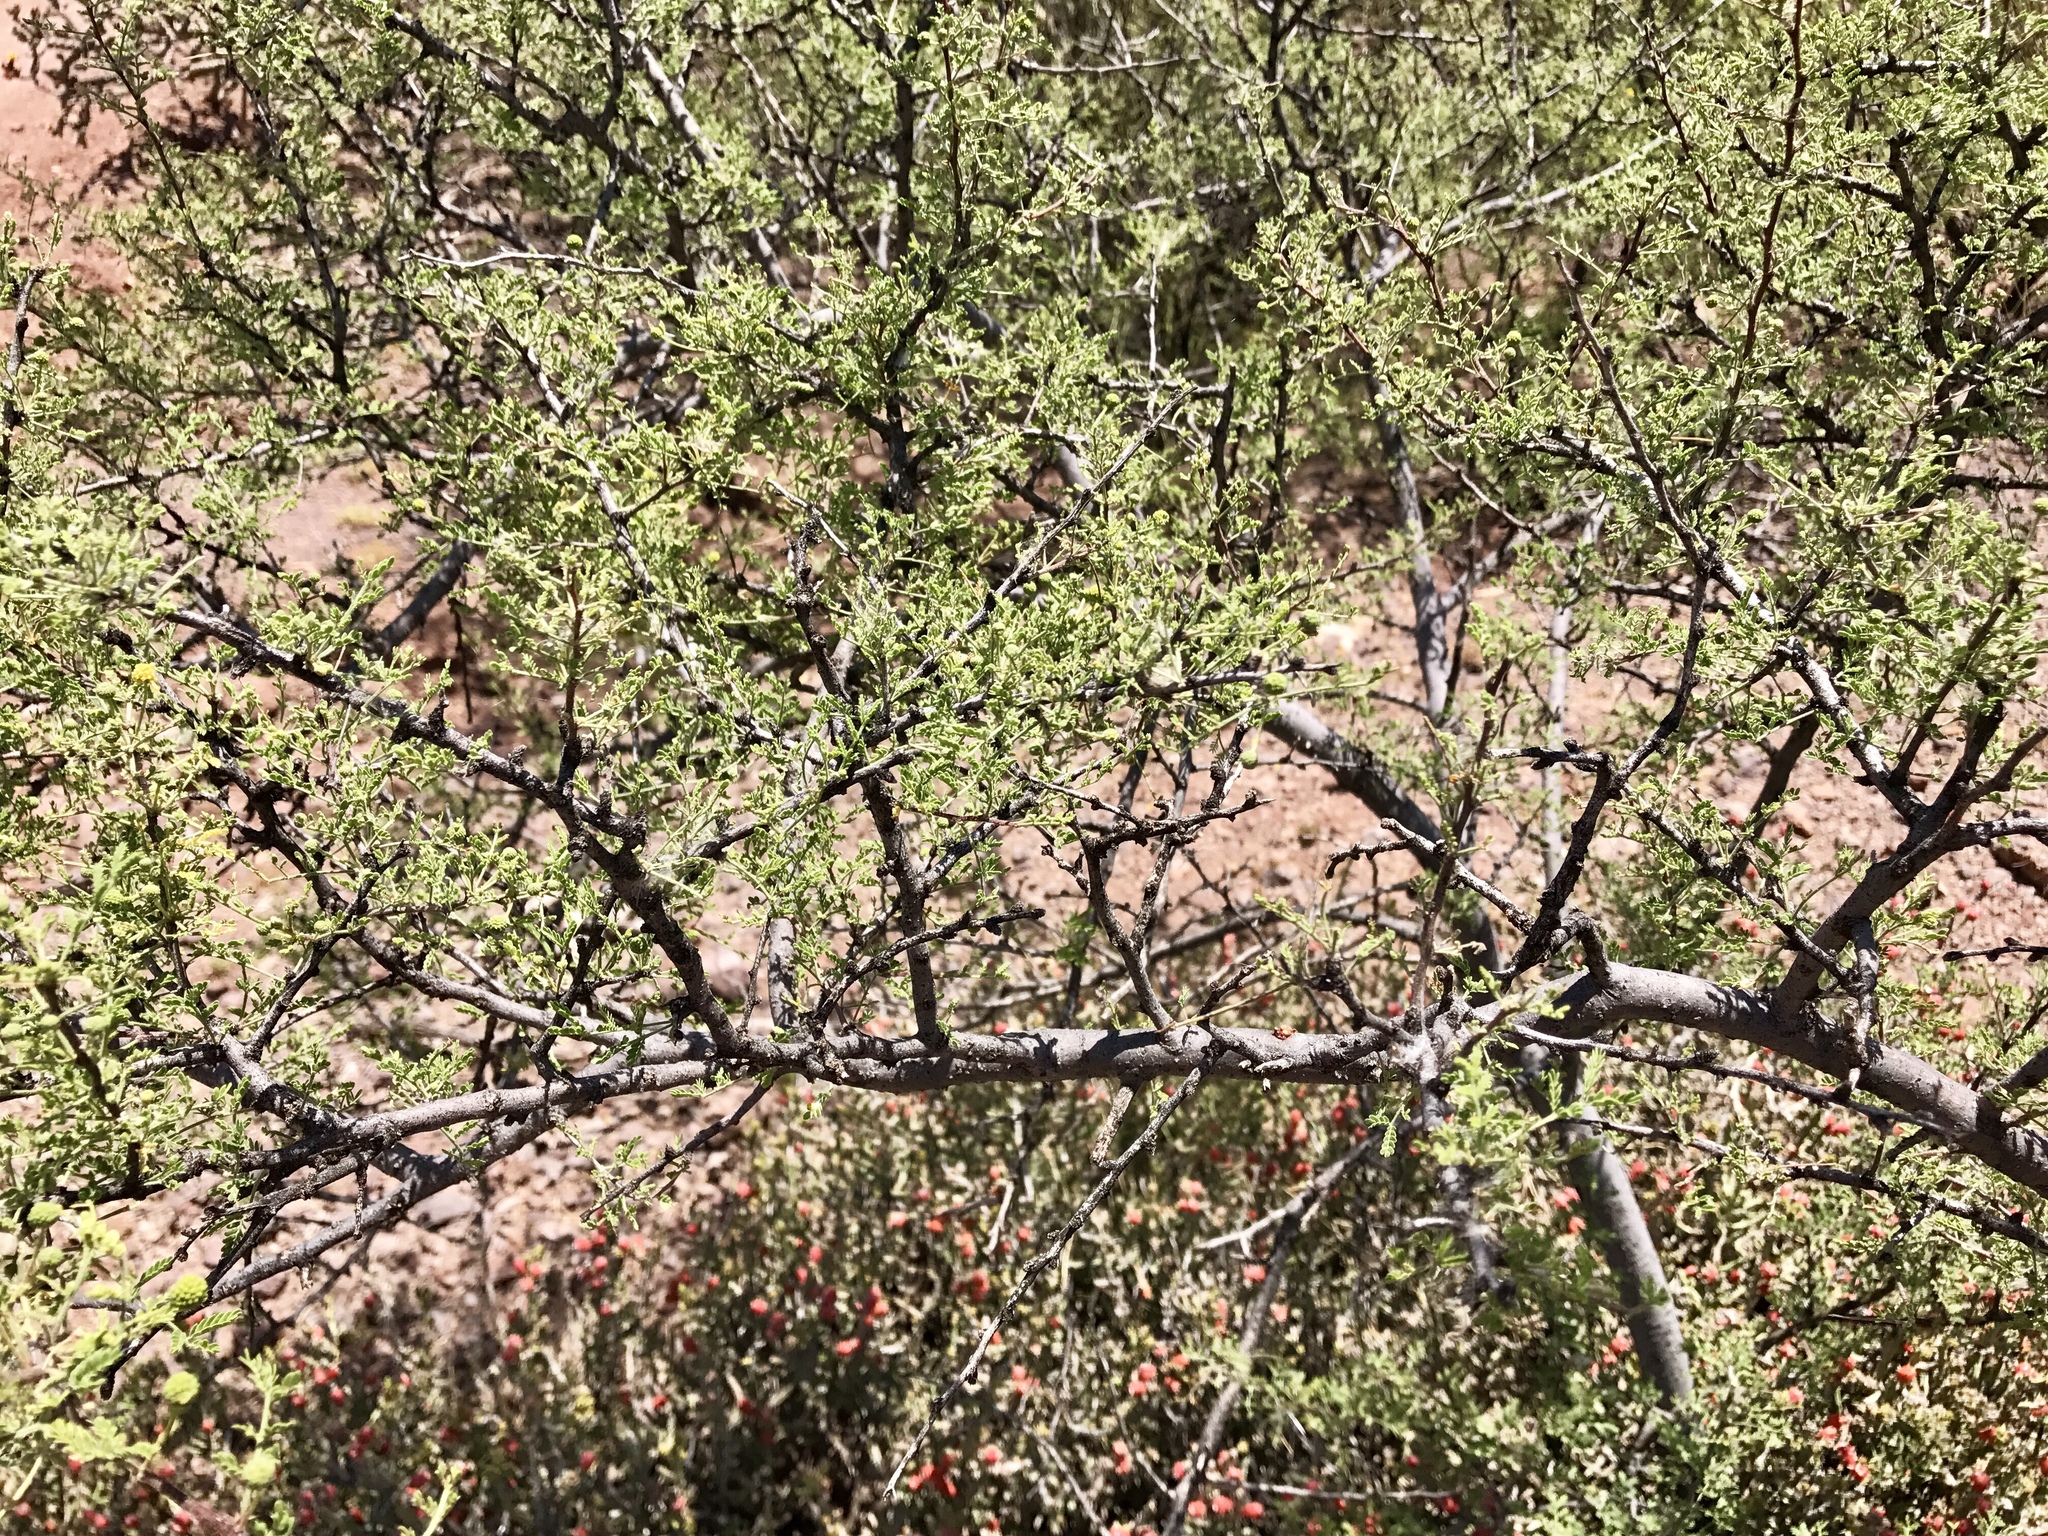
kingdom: Plantae
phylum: Tracheophyta
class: Magnoliopsida
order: Fabales
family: Fabaceae
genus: Vachellia
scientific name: Vachellia constricta
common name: Mescat acacia
